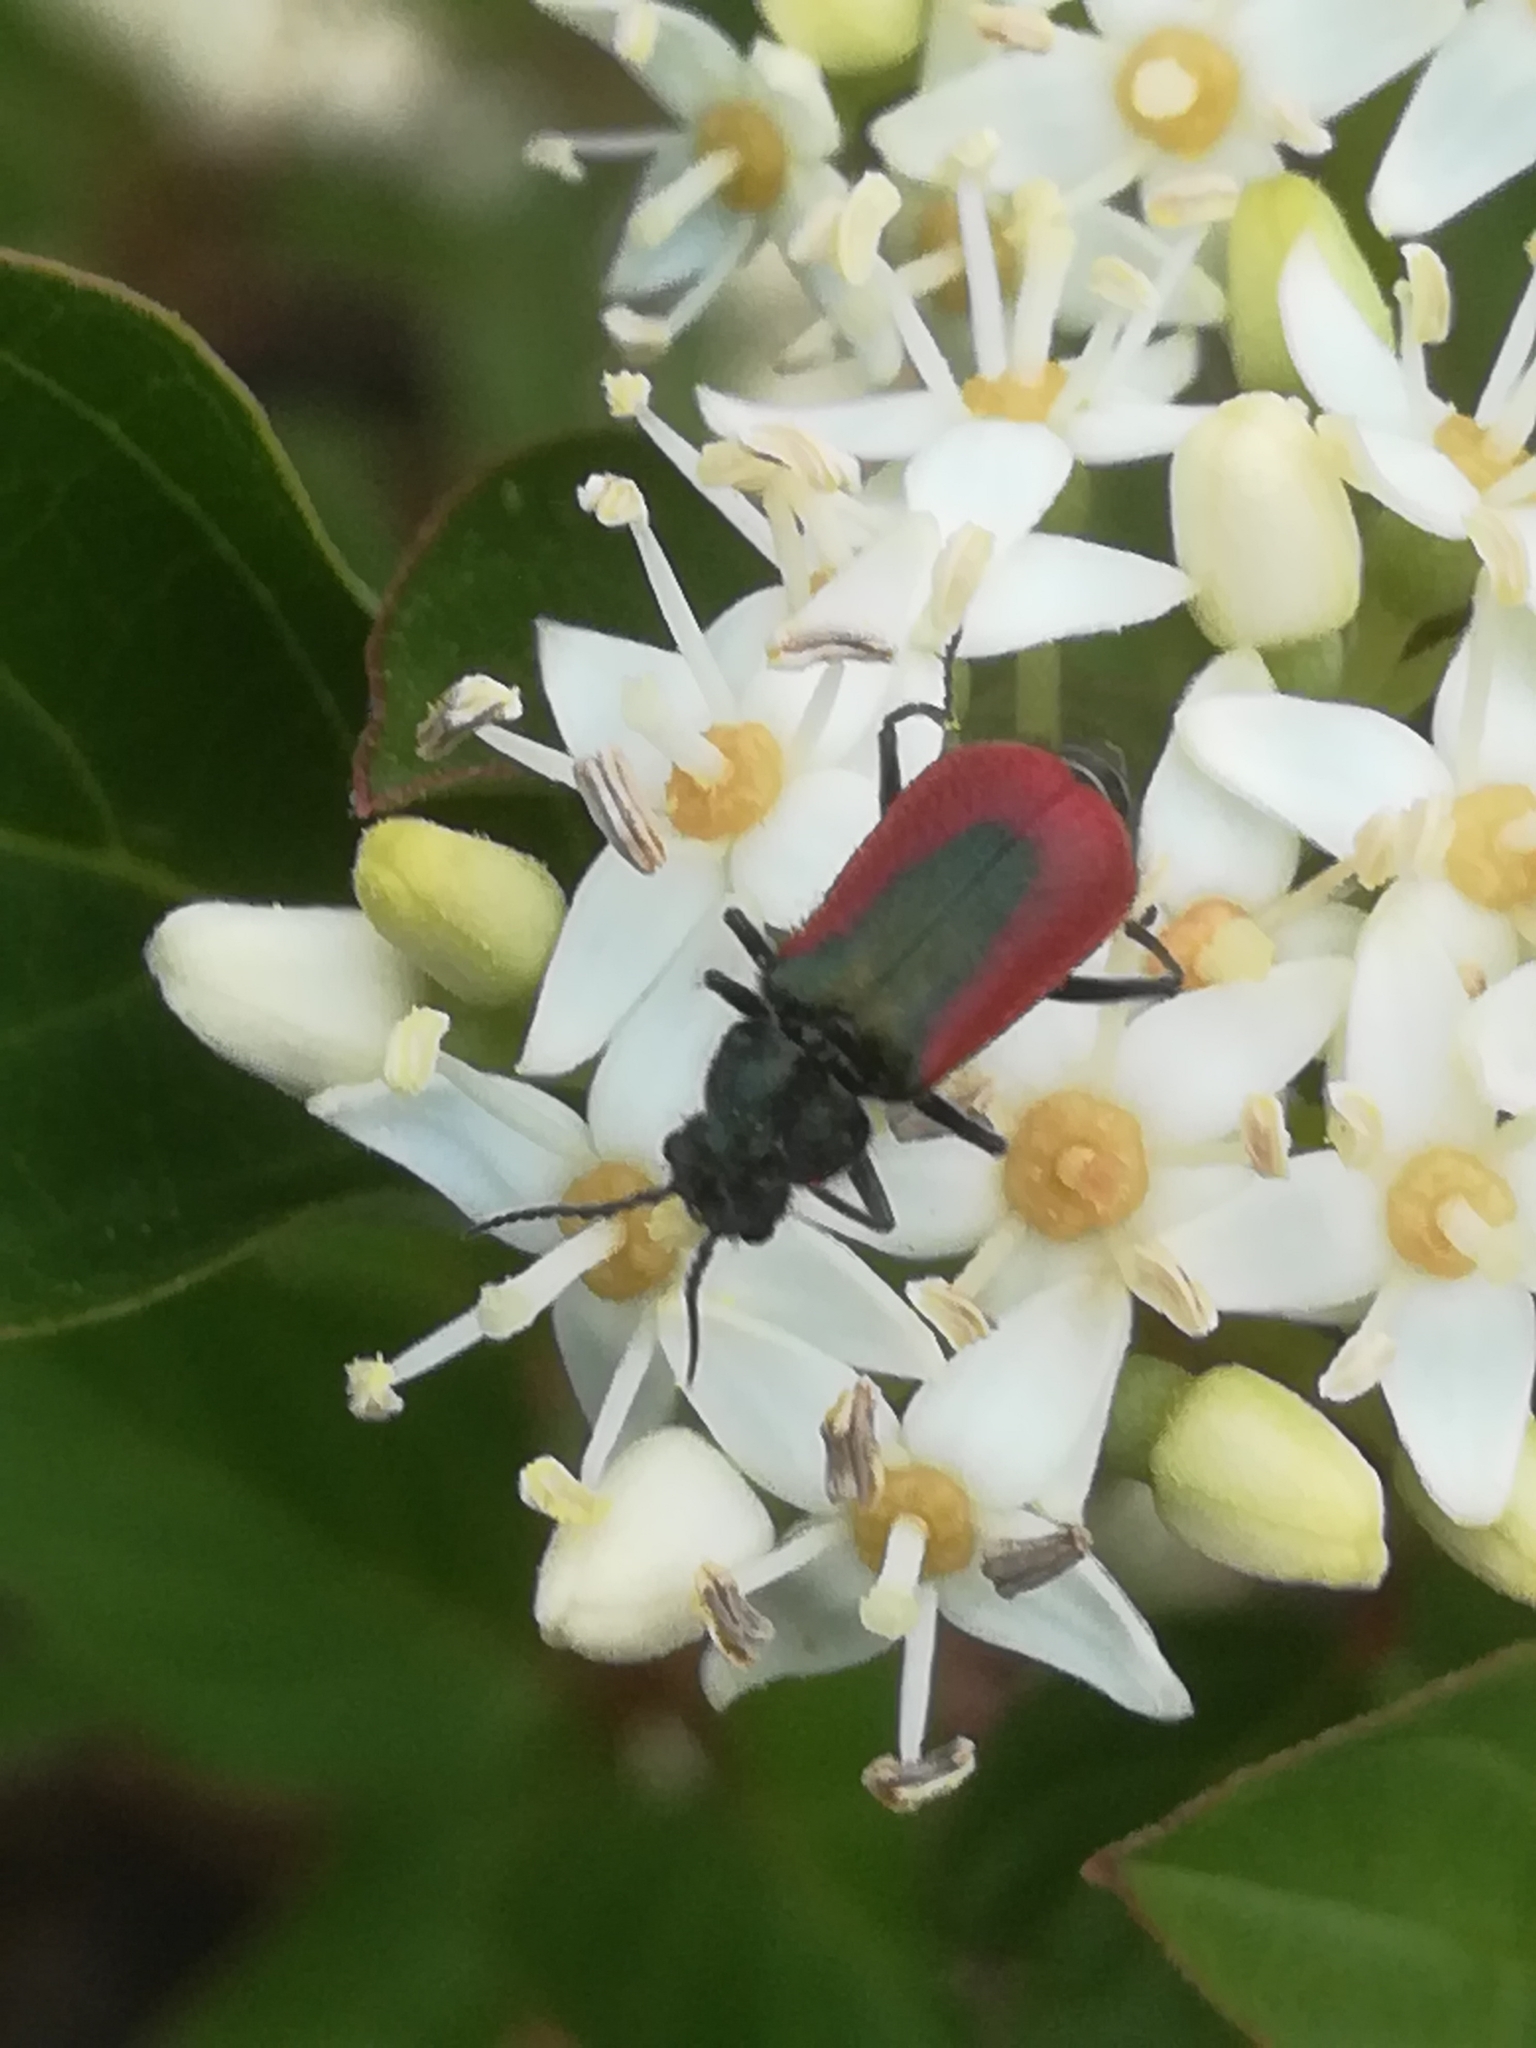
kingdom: Animalia
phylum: Arthropoda
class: Insecta
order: Coleoptera
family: Melyridae
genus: Malachius
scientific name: Malachius aeneus
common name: Scarlet malachite beetle
